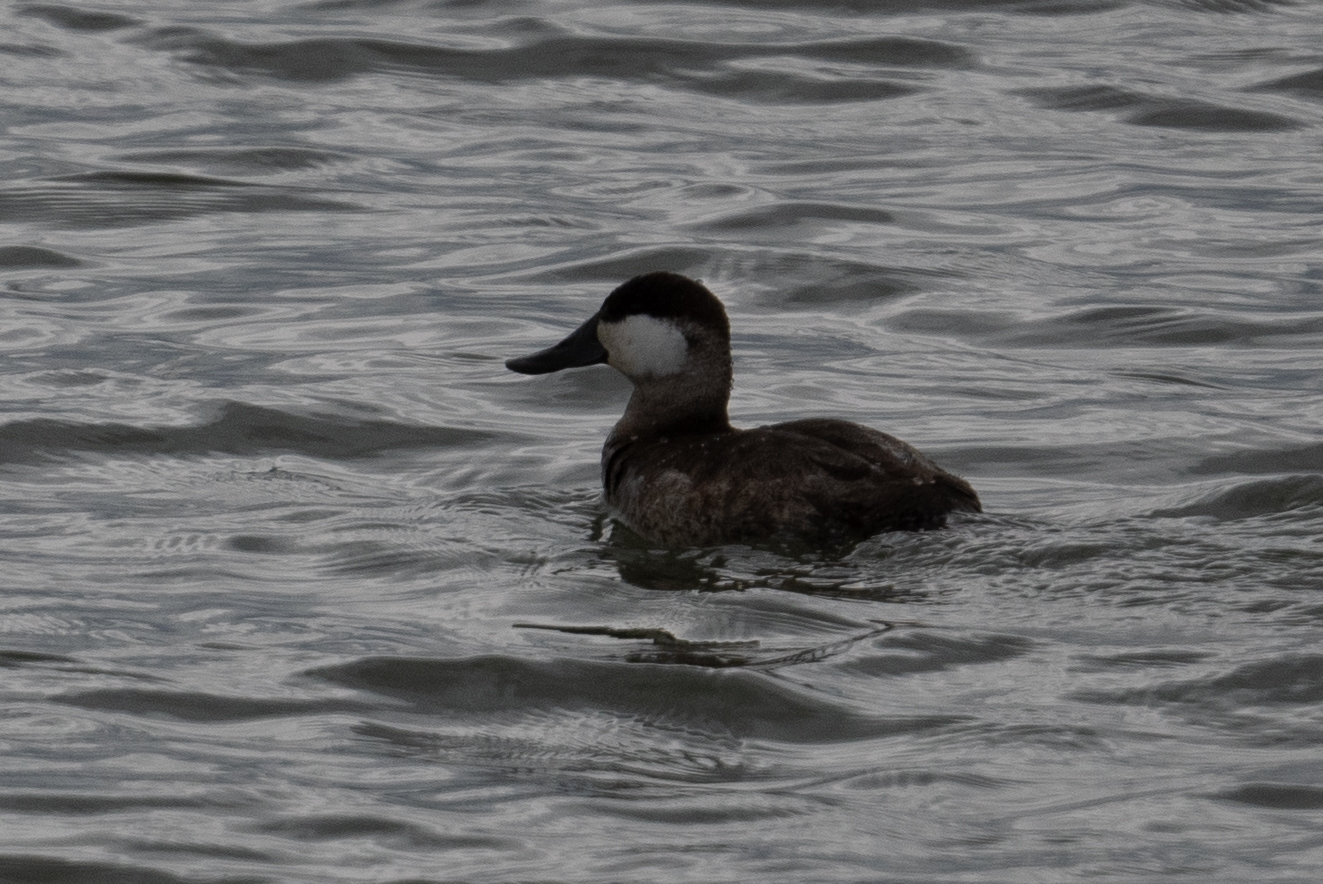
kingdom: Animalia
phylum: Chordata
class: Aves
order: Anseriformes
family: Anatidae
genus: Oxyura
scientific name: Oxyura jamaicensis
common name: Ruddy duck
